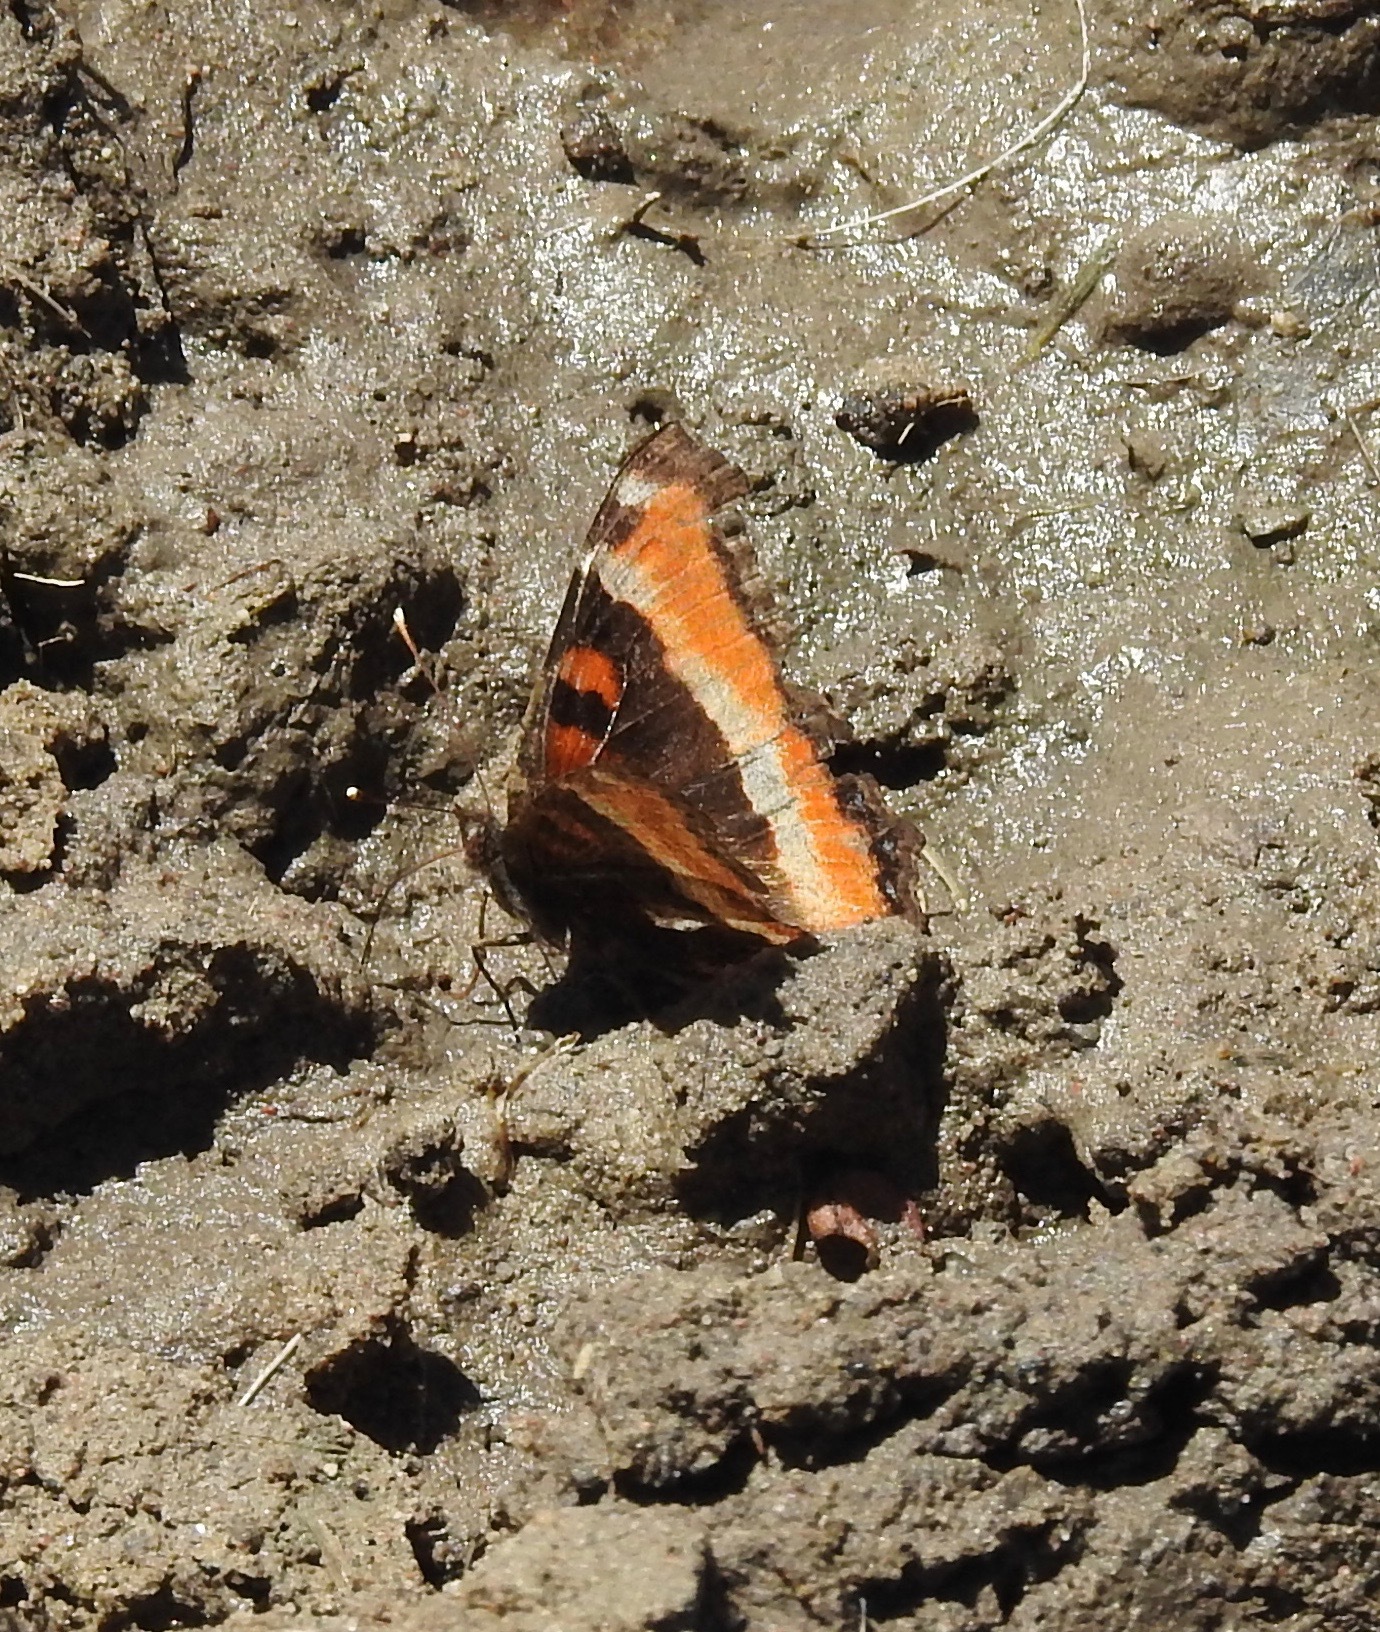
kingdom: Animalia
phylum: Arthropoda
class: Insecta
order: Lepidoptera
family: Nymphalidae
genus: Aglais
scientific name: Aglais milberti
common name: Milbert's tortoiseshell
